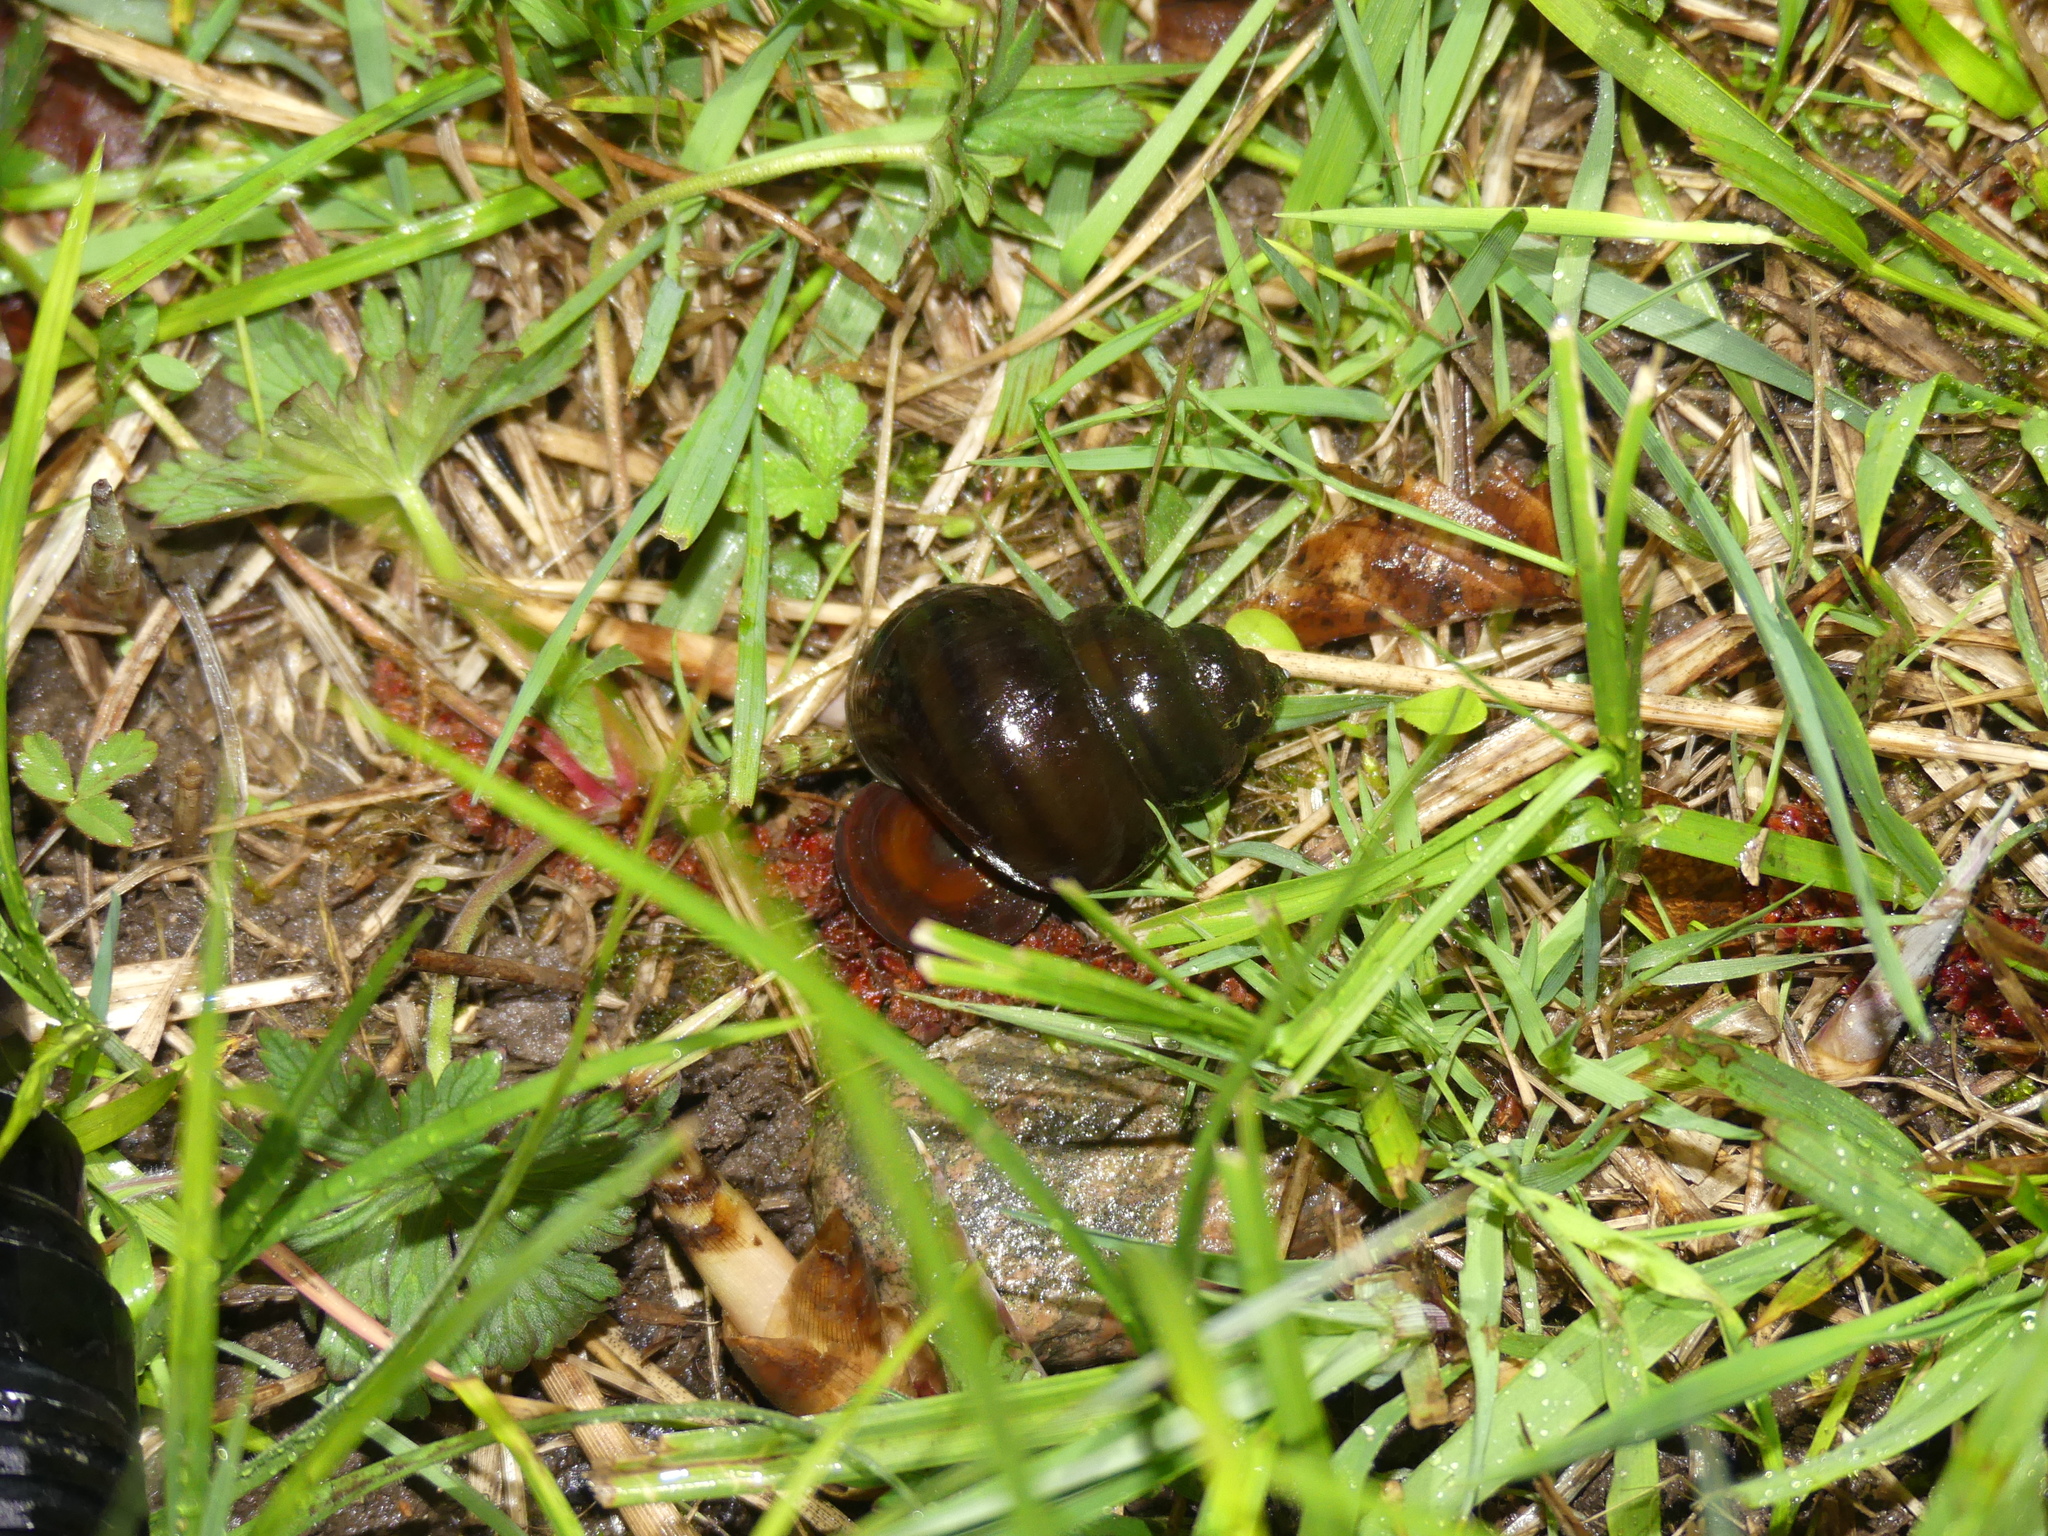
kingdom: Animalia
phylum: Mollusca
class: Gastropoda
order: Architaenioglossa
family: Viviparidae
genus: Viviparus
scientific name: Viviparus contectus
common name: Lister's river snail
